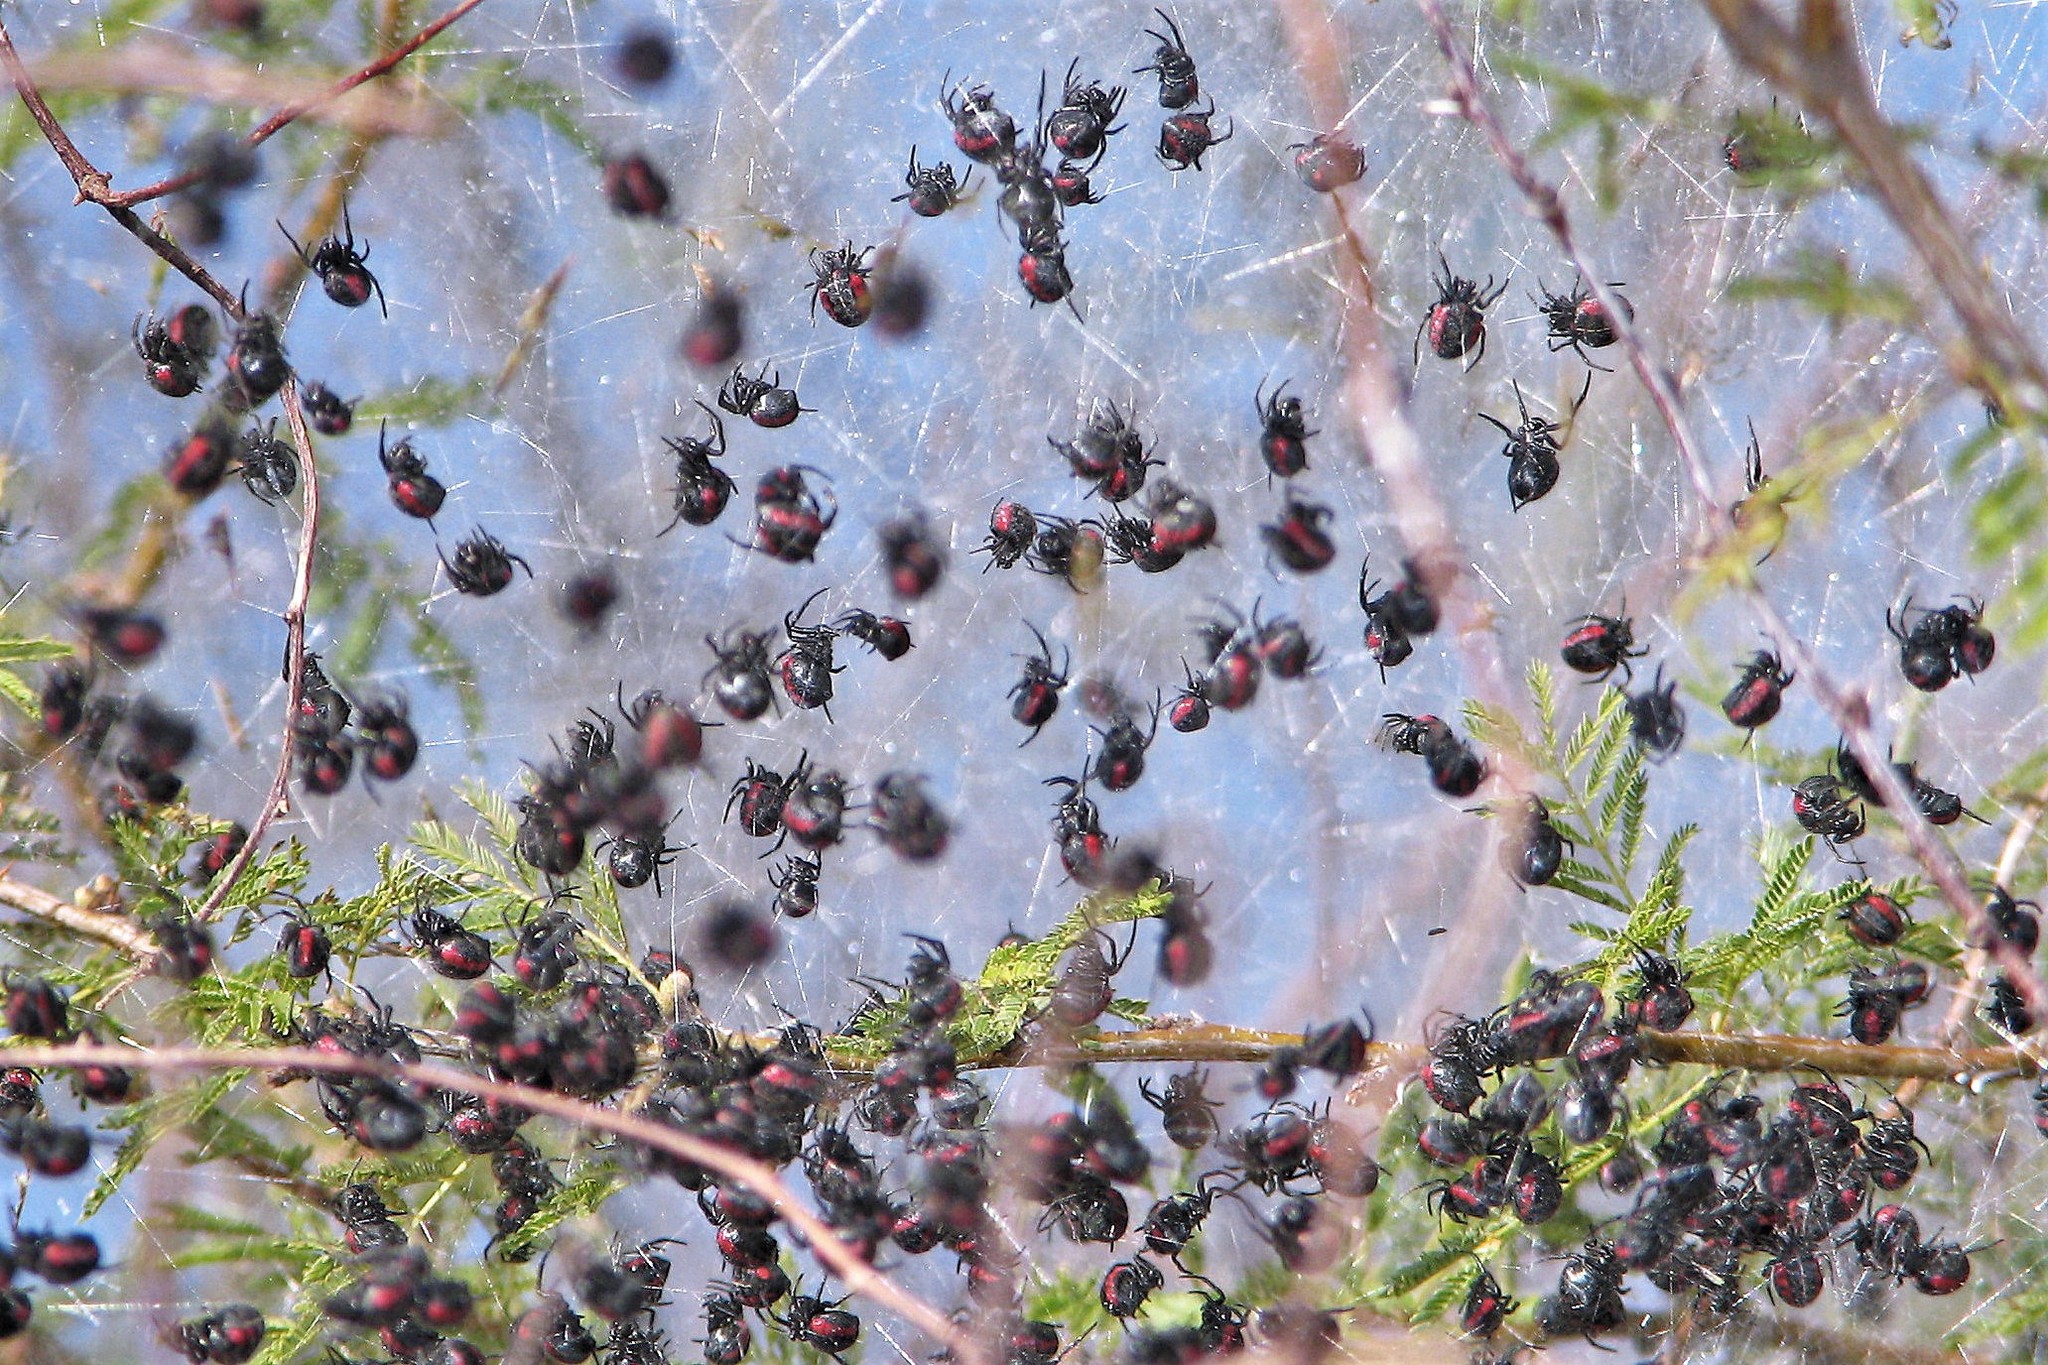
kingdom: Animalia
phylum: Arthropoda
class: Arachnida
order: Araneae
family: Araneidae
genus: Parawixia
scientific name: Parawixia bistriata
